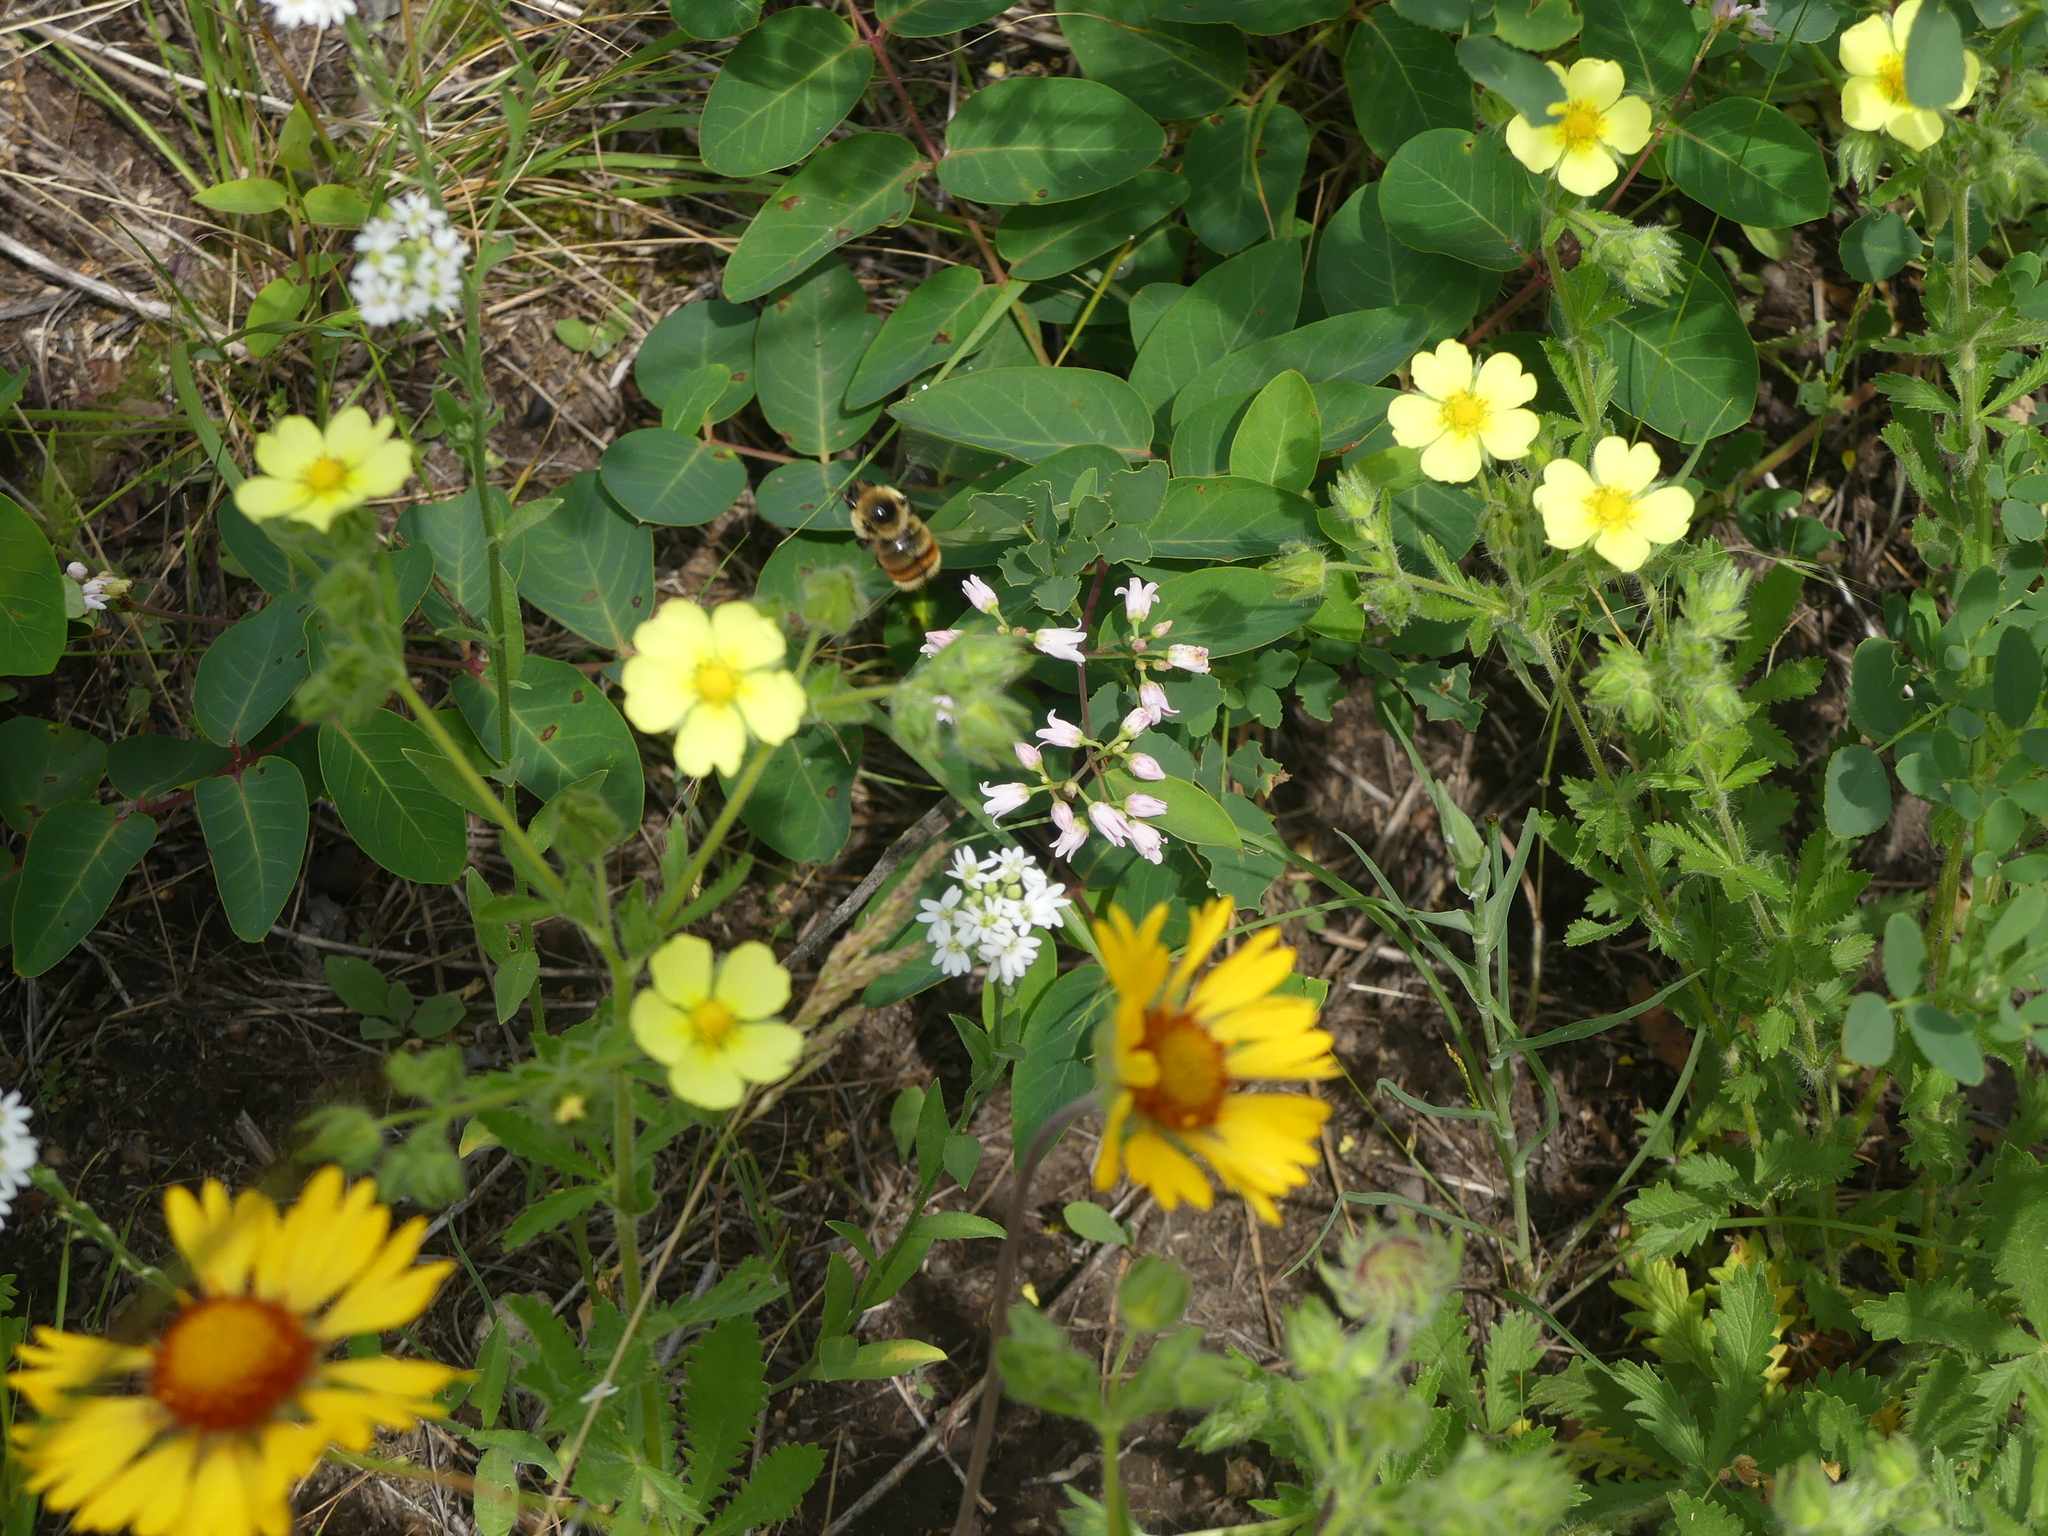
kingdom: Animalia
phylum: Arthropoda
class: Insecta
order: Hymenoptera
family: Apidae
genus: Bombus
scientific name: Bombus rufocinctus
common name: Red-belted bumble bee
